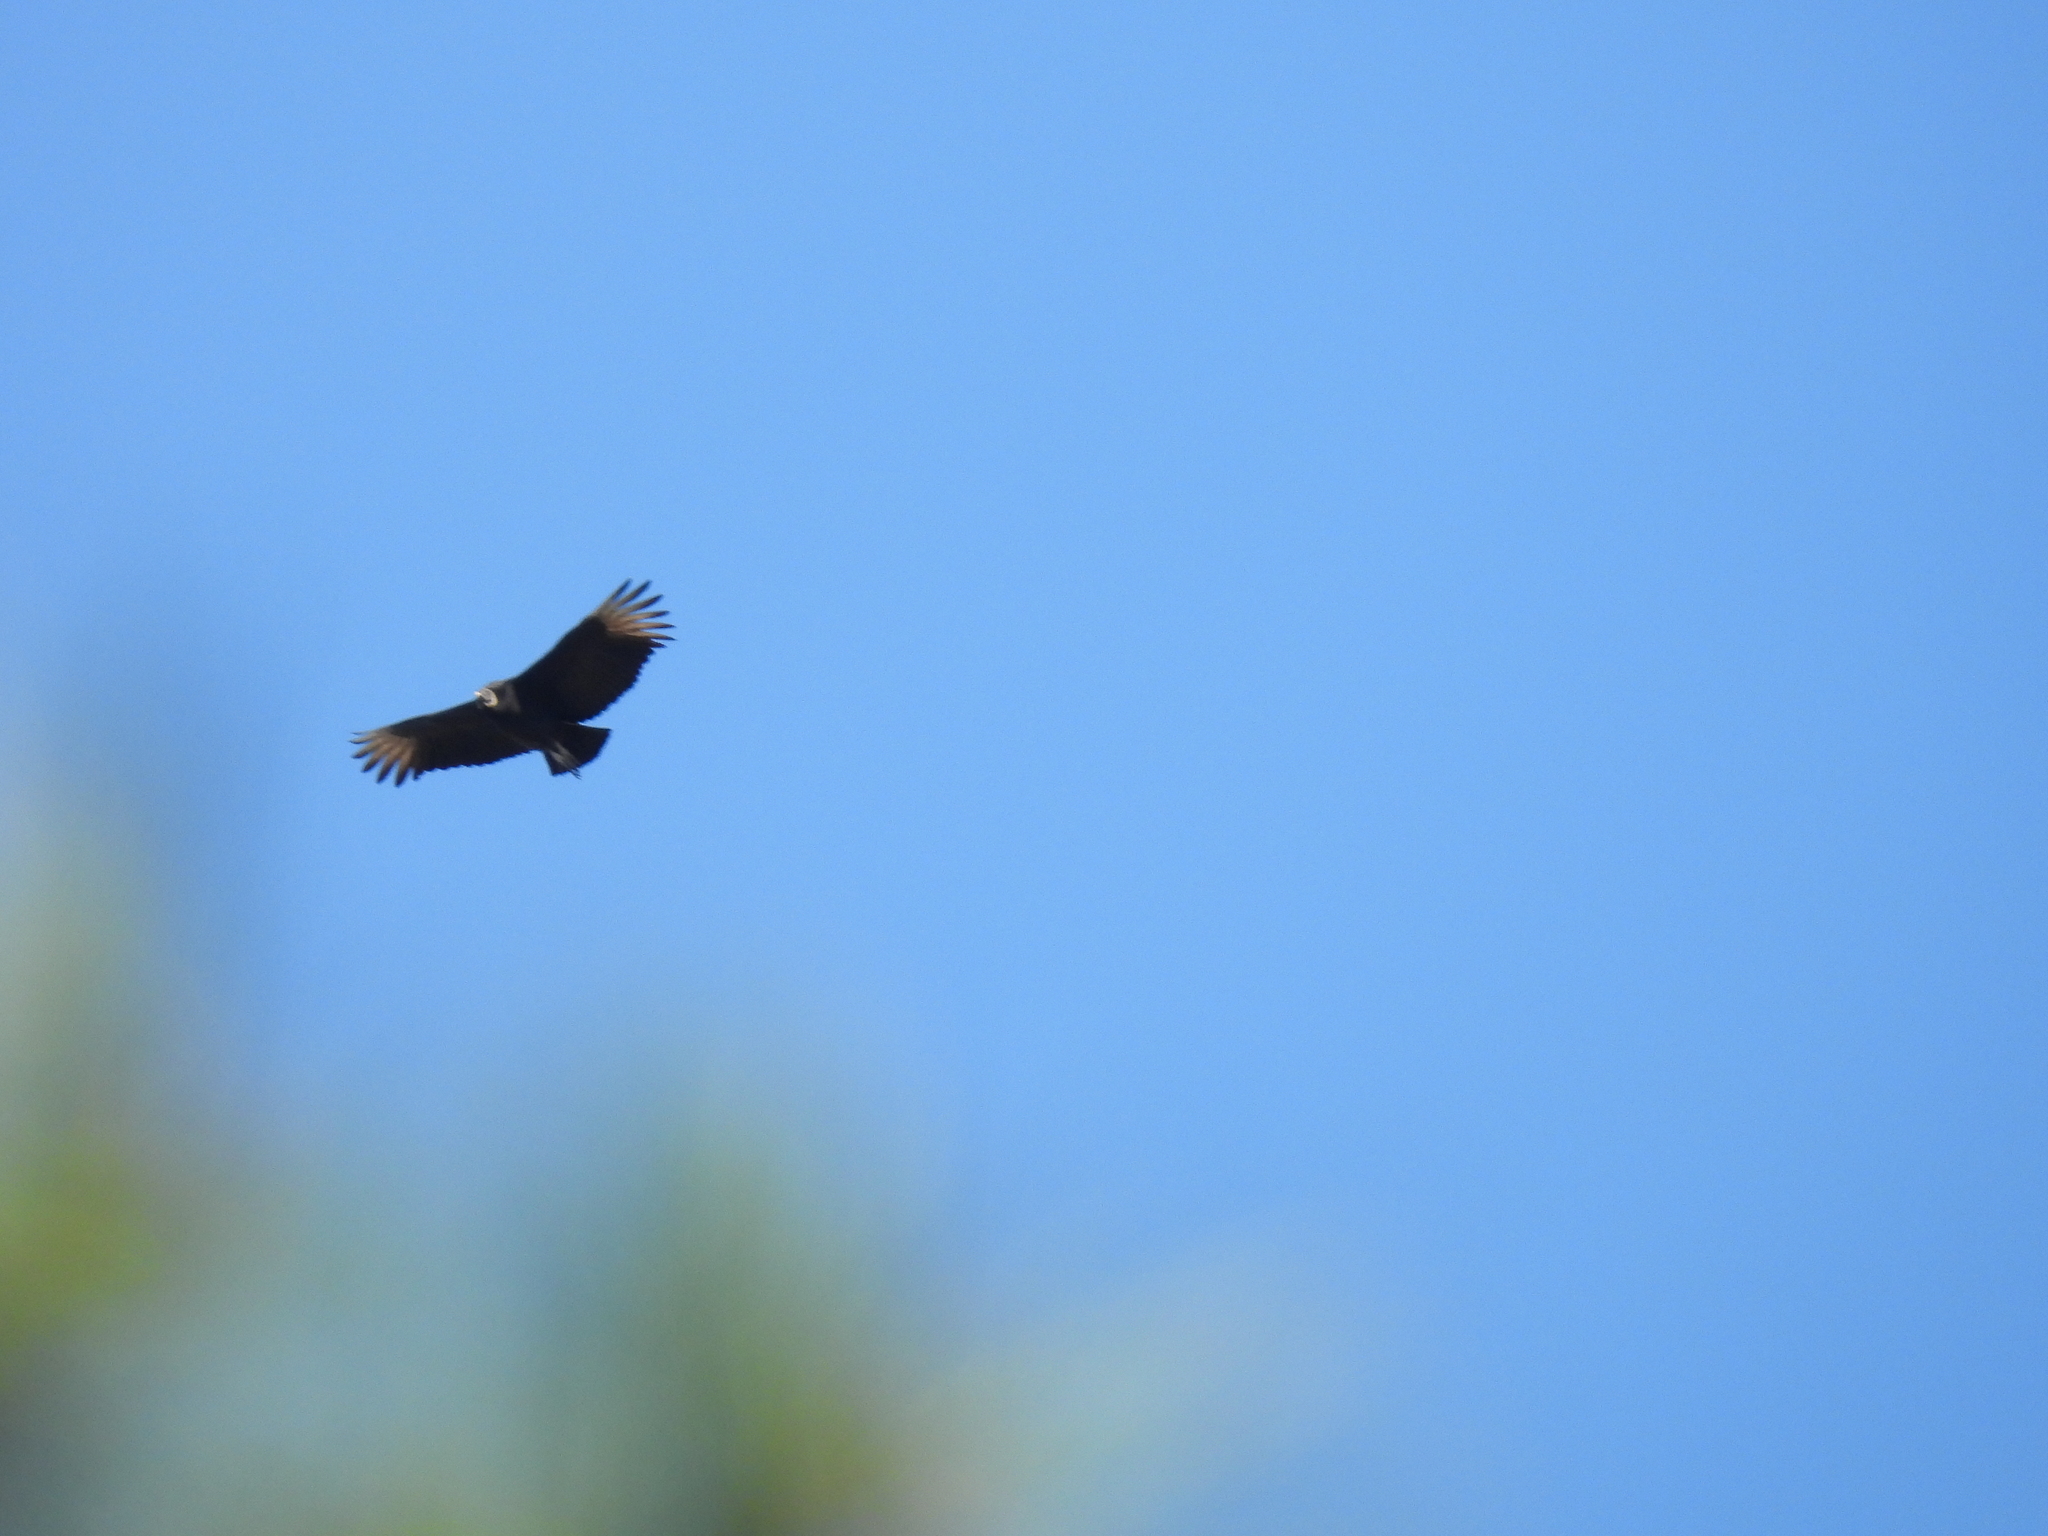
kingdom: Animalia
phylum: Chordata
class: Aves
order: Accipitriformes
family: Cathartidae
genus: Coragyps
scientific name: Coragyps atratus
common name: Black vulture
